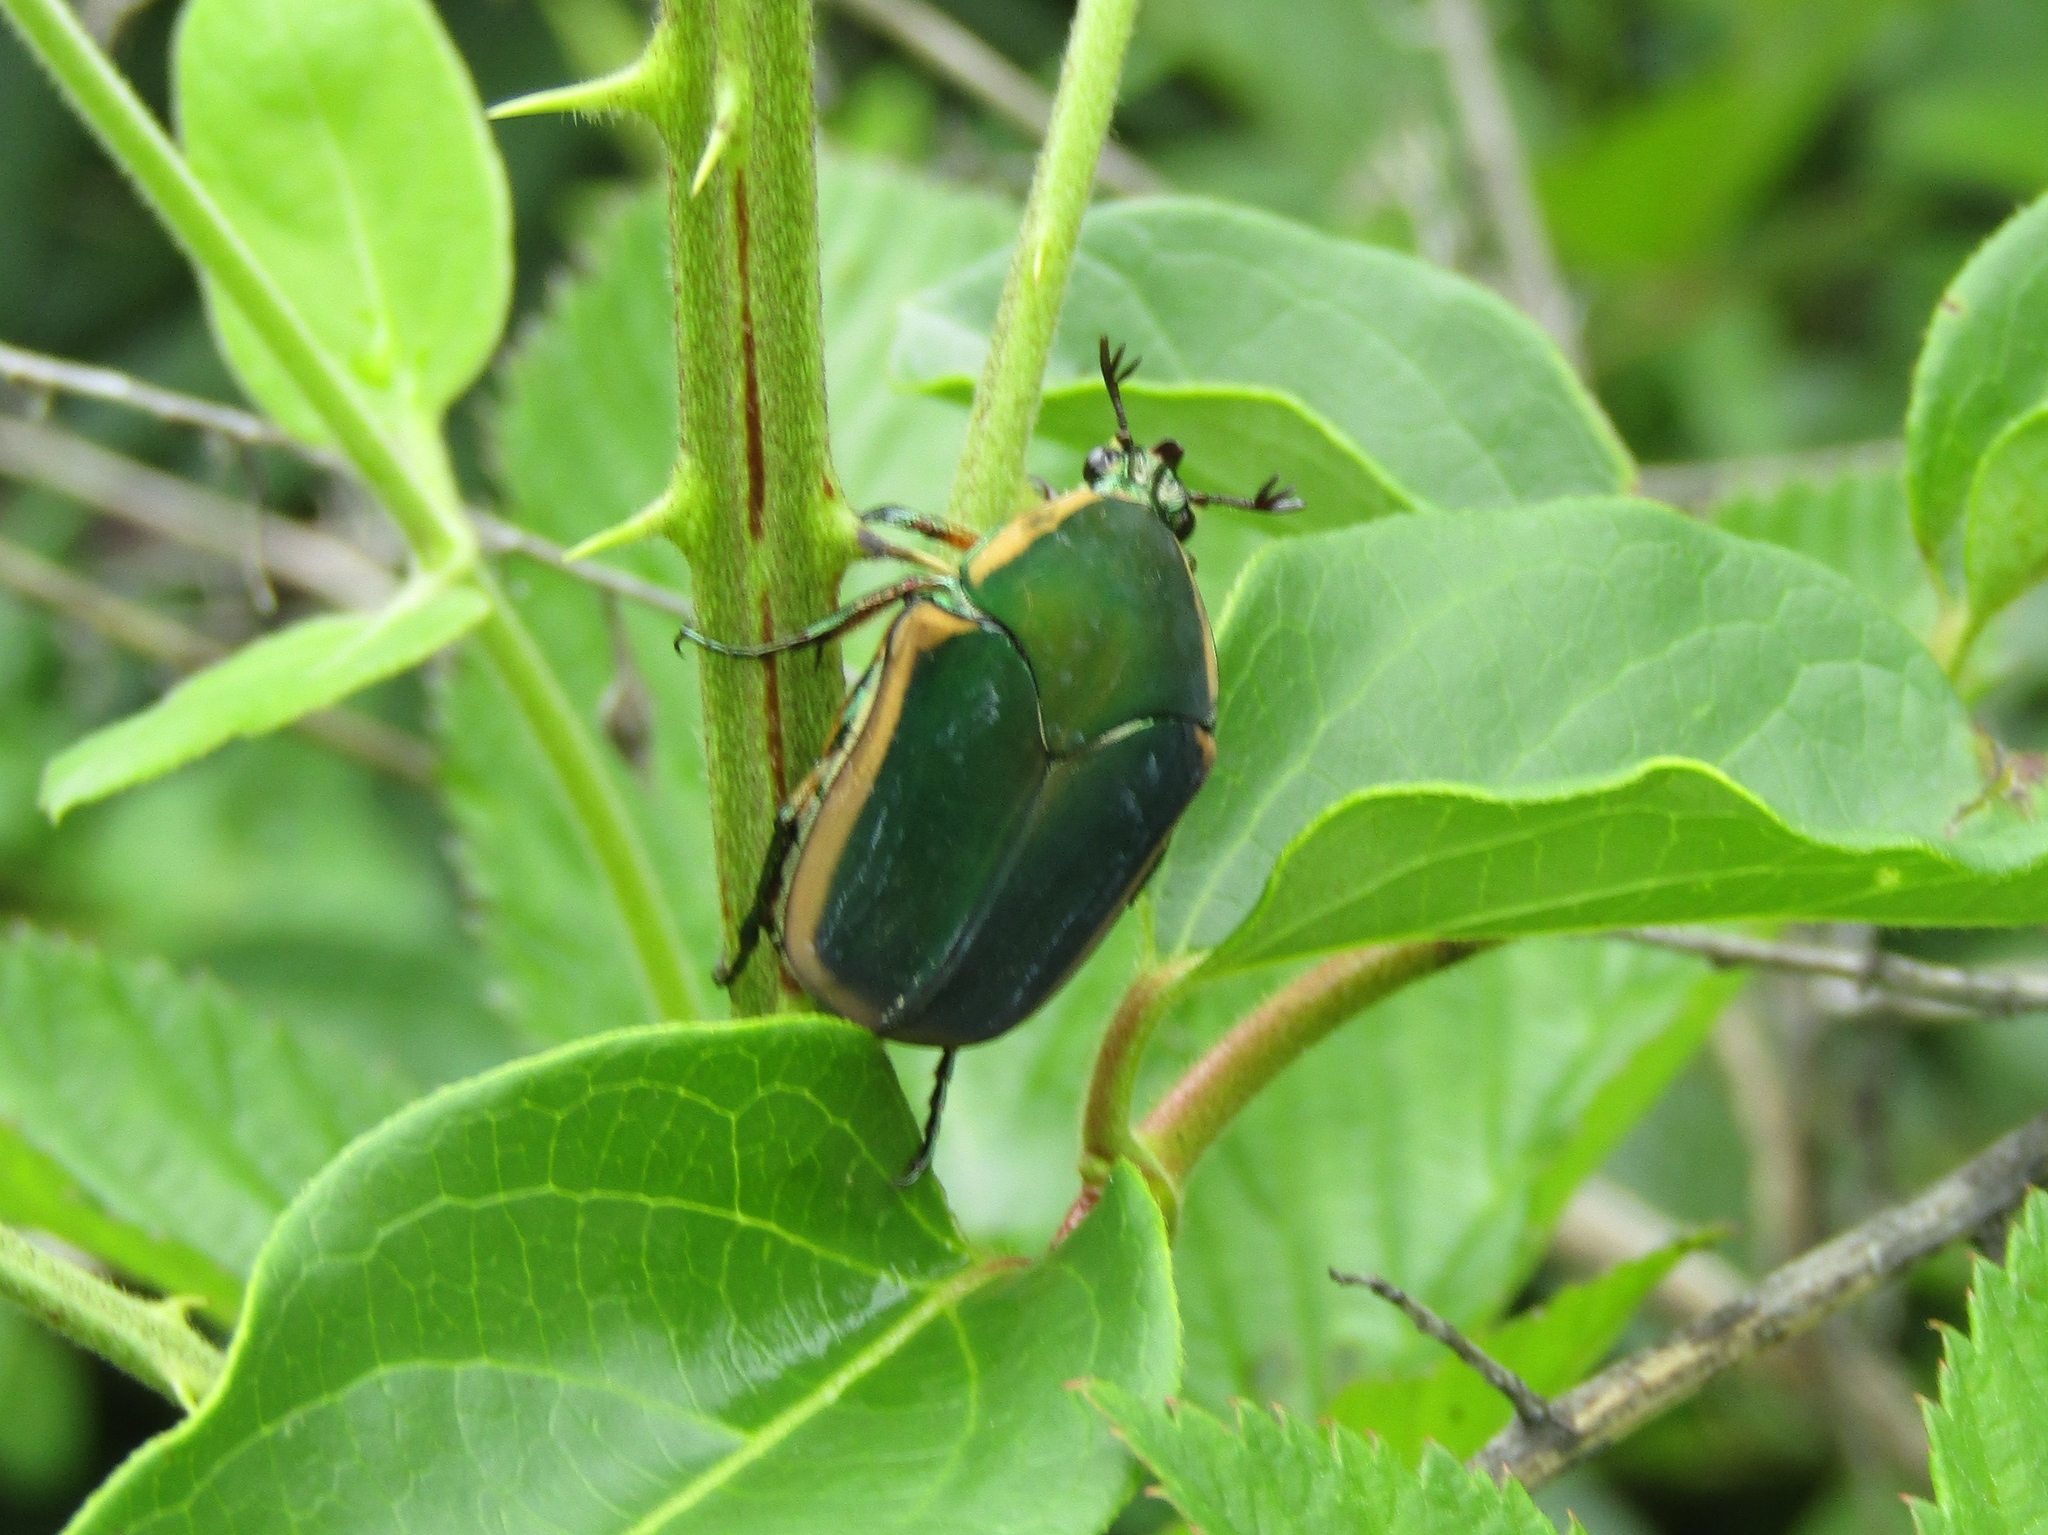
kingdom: Animalia
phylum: Arthropoda
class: Insecta
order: Coleoptera
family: Scarabaeidae
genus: Cotinis
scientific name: Cotinis nitida
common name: Common green june beetle
